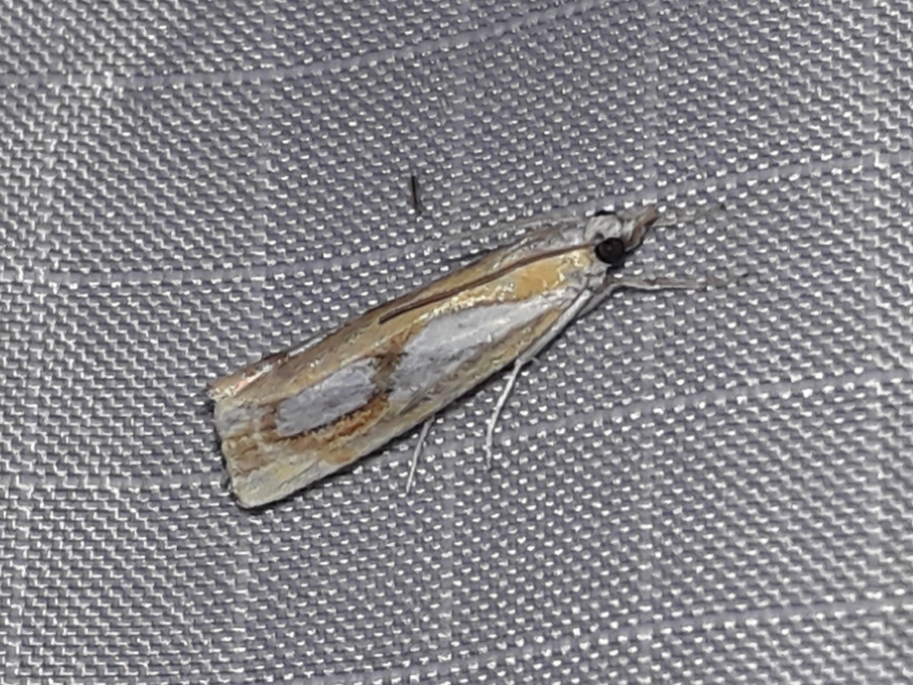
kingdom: Animalia
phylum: Arthropoda
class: Insecta
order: Lepidoptera
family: Crambidae
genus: Catoptria
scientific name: Catoptria pinella
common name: Pearl grass-veneer
